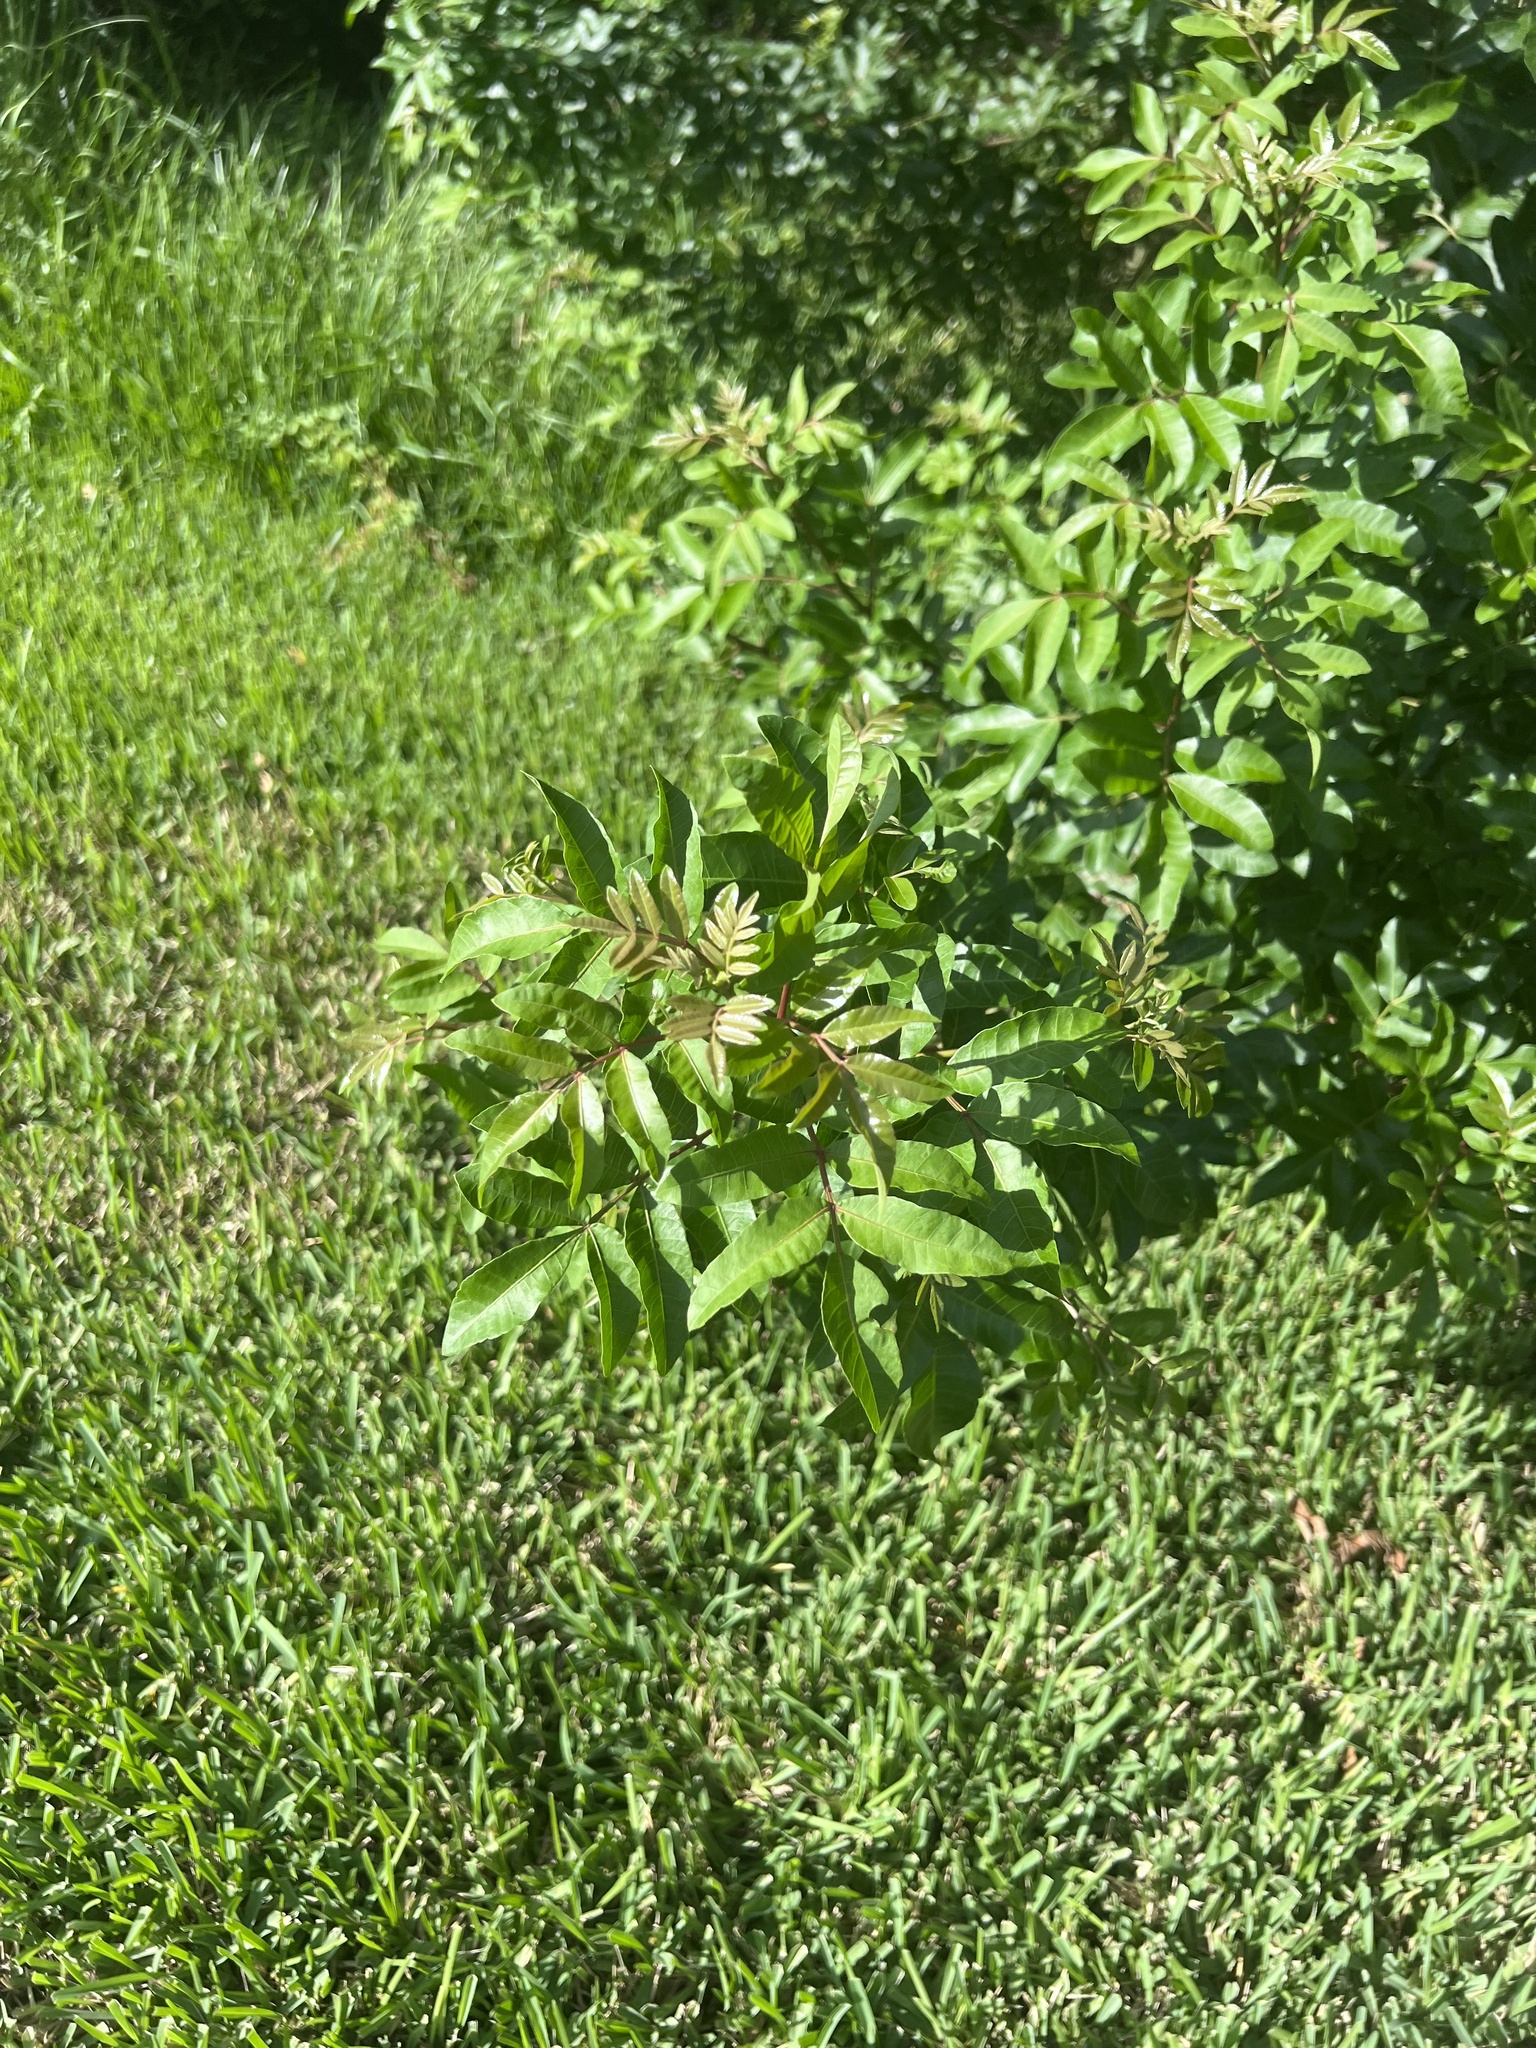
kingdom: Plantae
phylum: Tracheophyta
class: Magnoliopsida
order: Sapindales
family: Anacardiaceae
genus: Schinus
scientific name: Schinus terebinthifolia
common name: Brazilian peppertree
